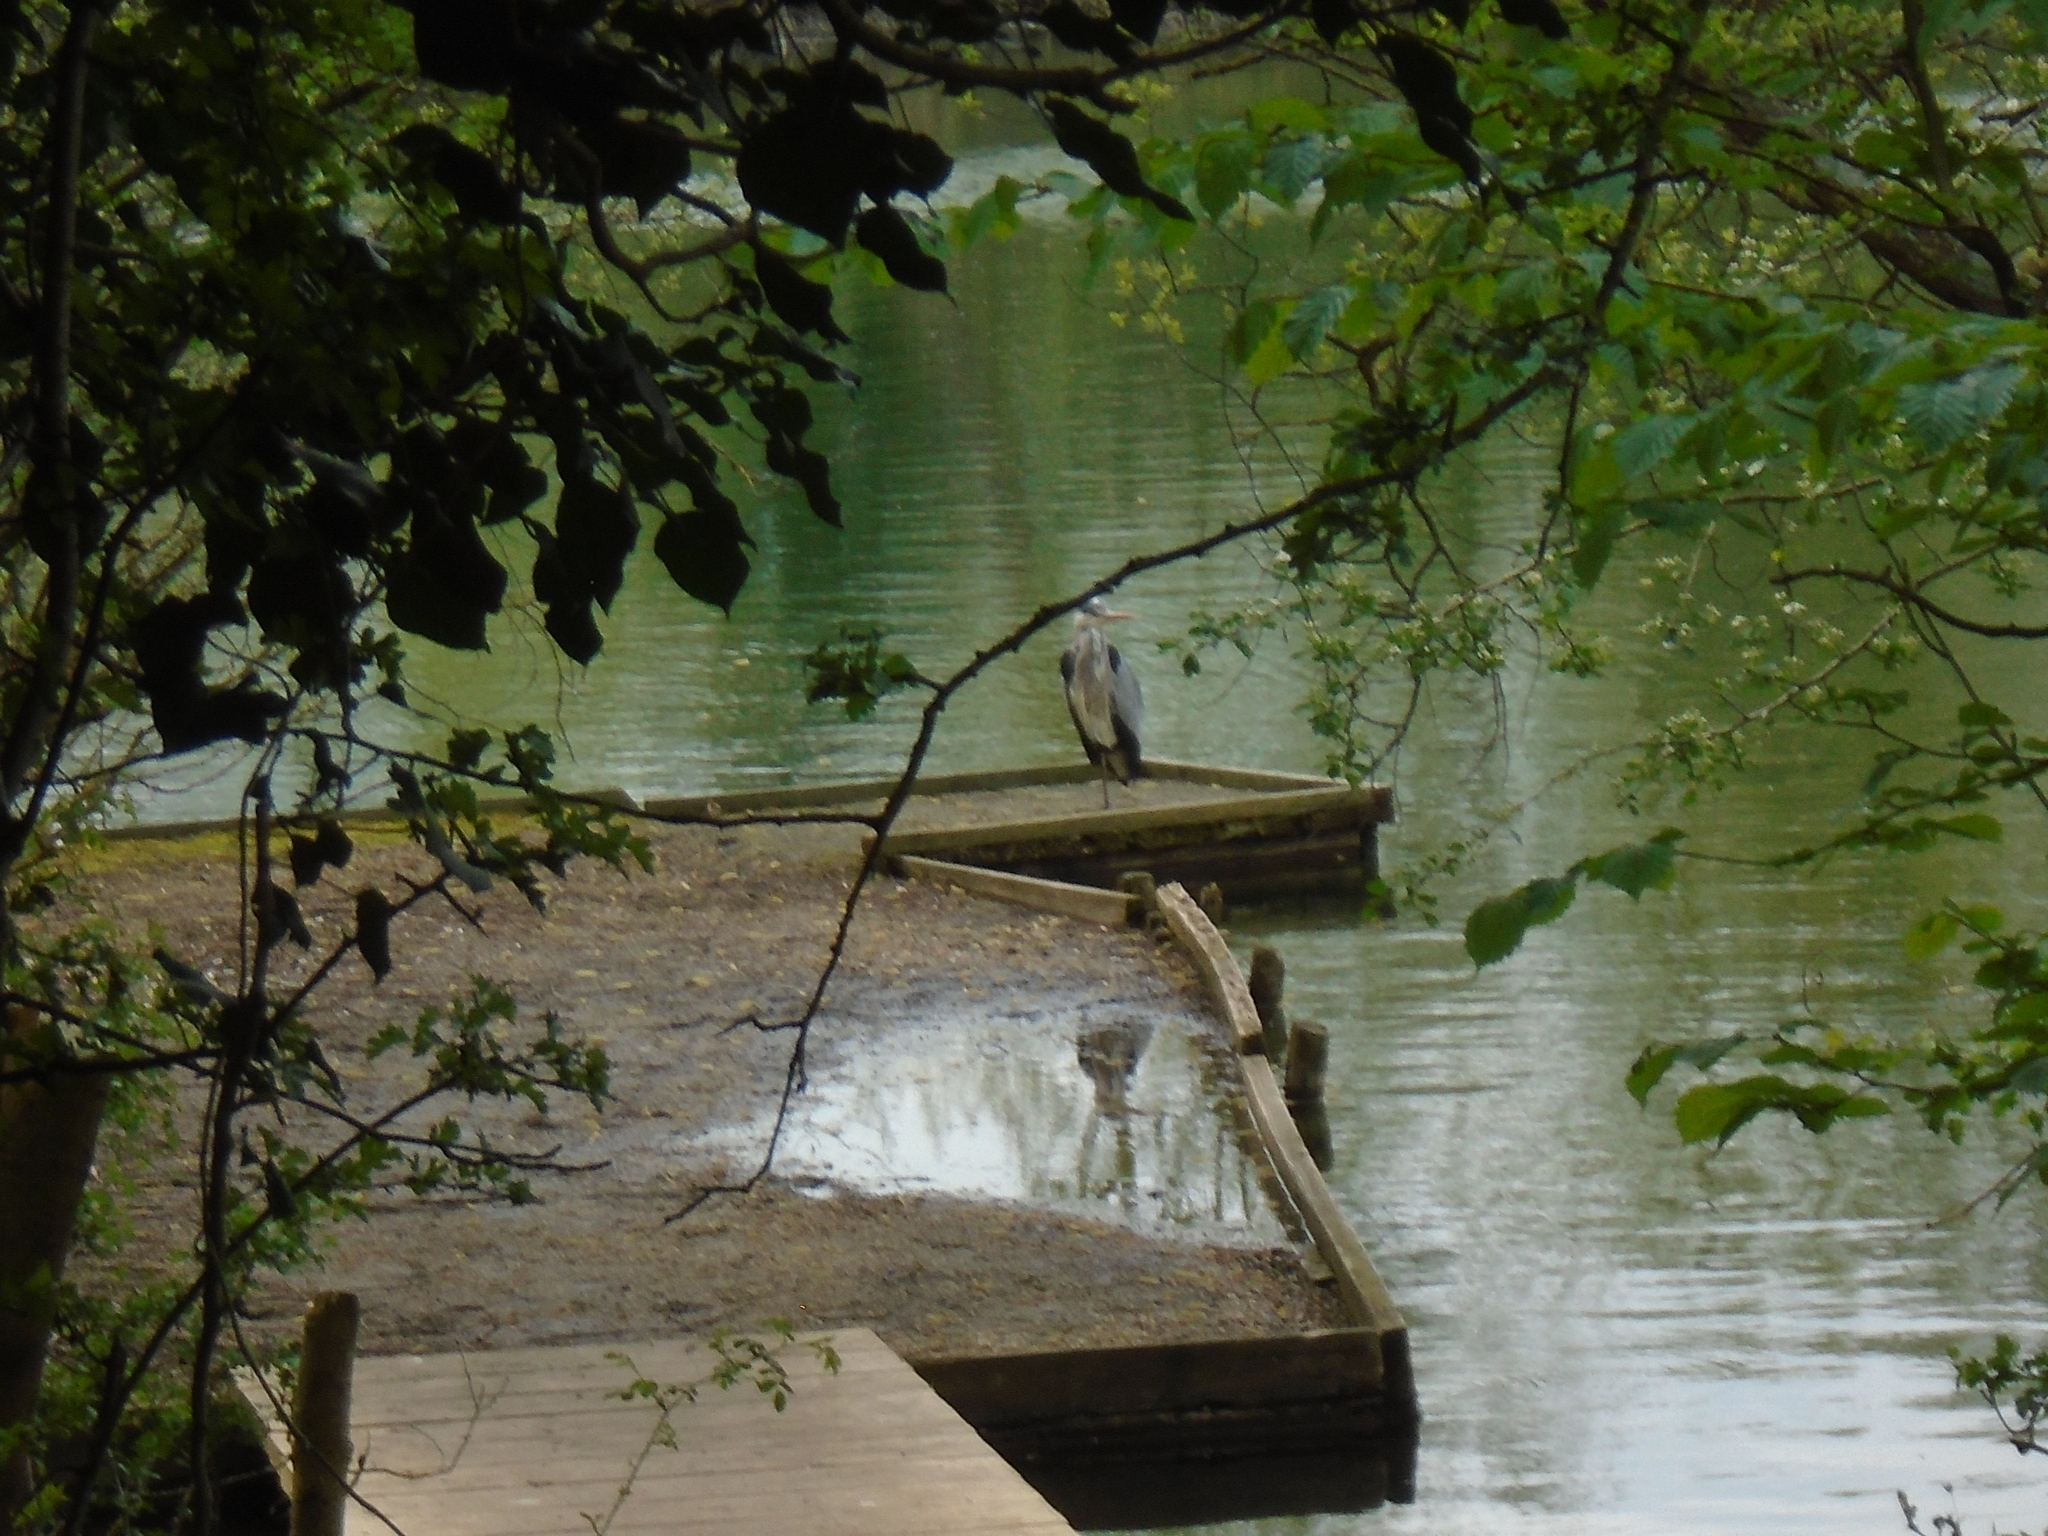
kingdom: Animalia
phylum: Chordata
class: Aves
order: Pelecaniformes
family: Ardeidae
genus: Ardea
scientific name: Ardea cinerea
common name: Grey heron
